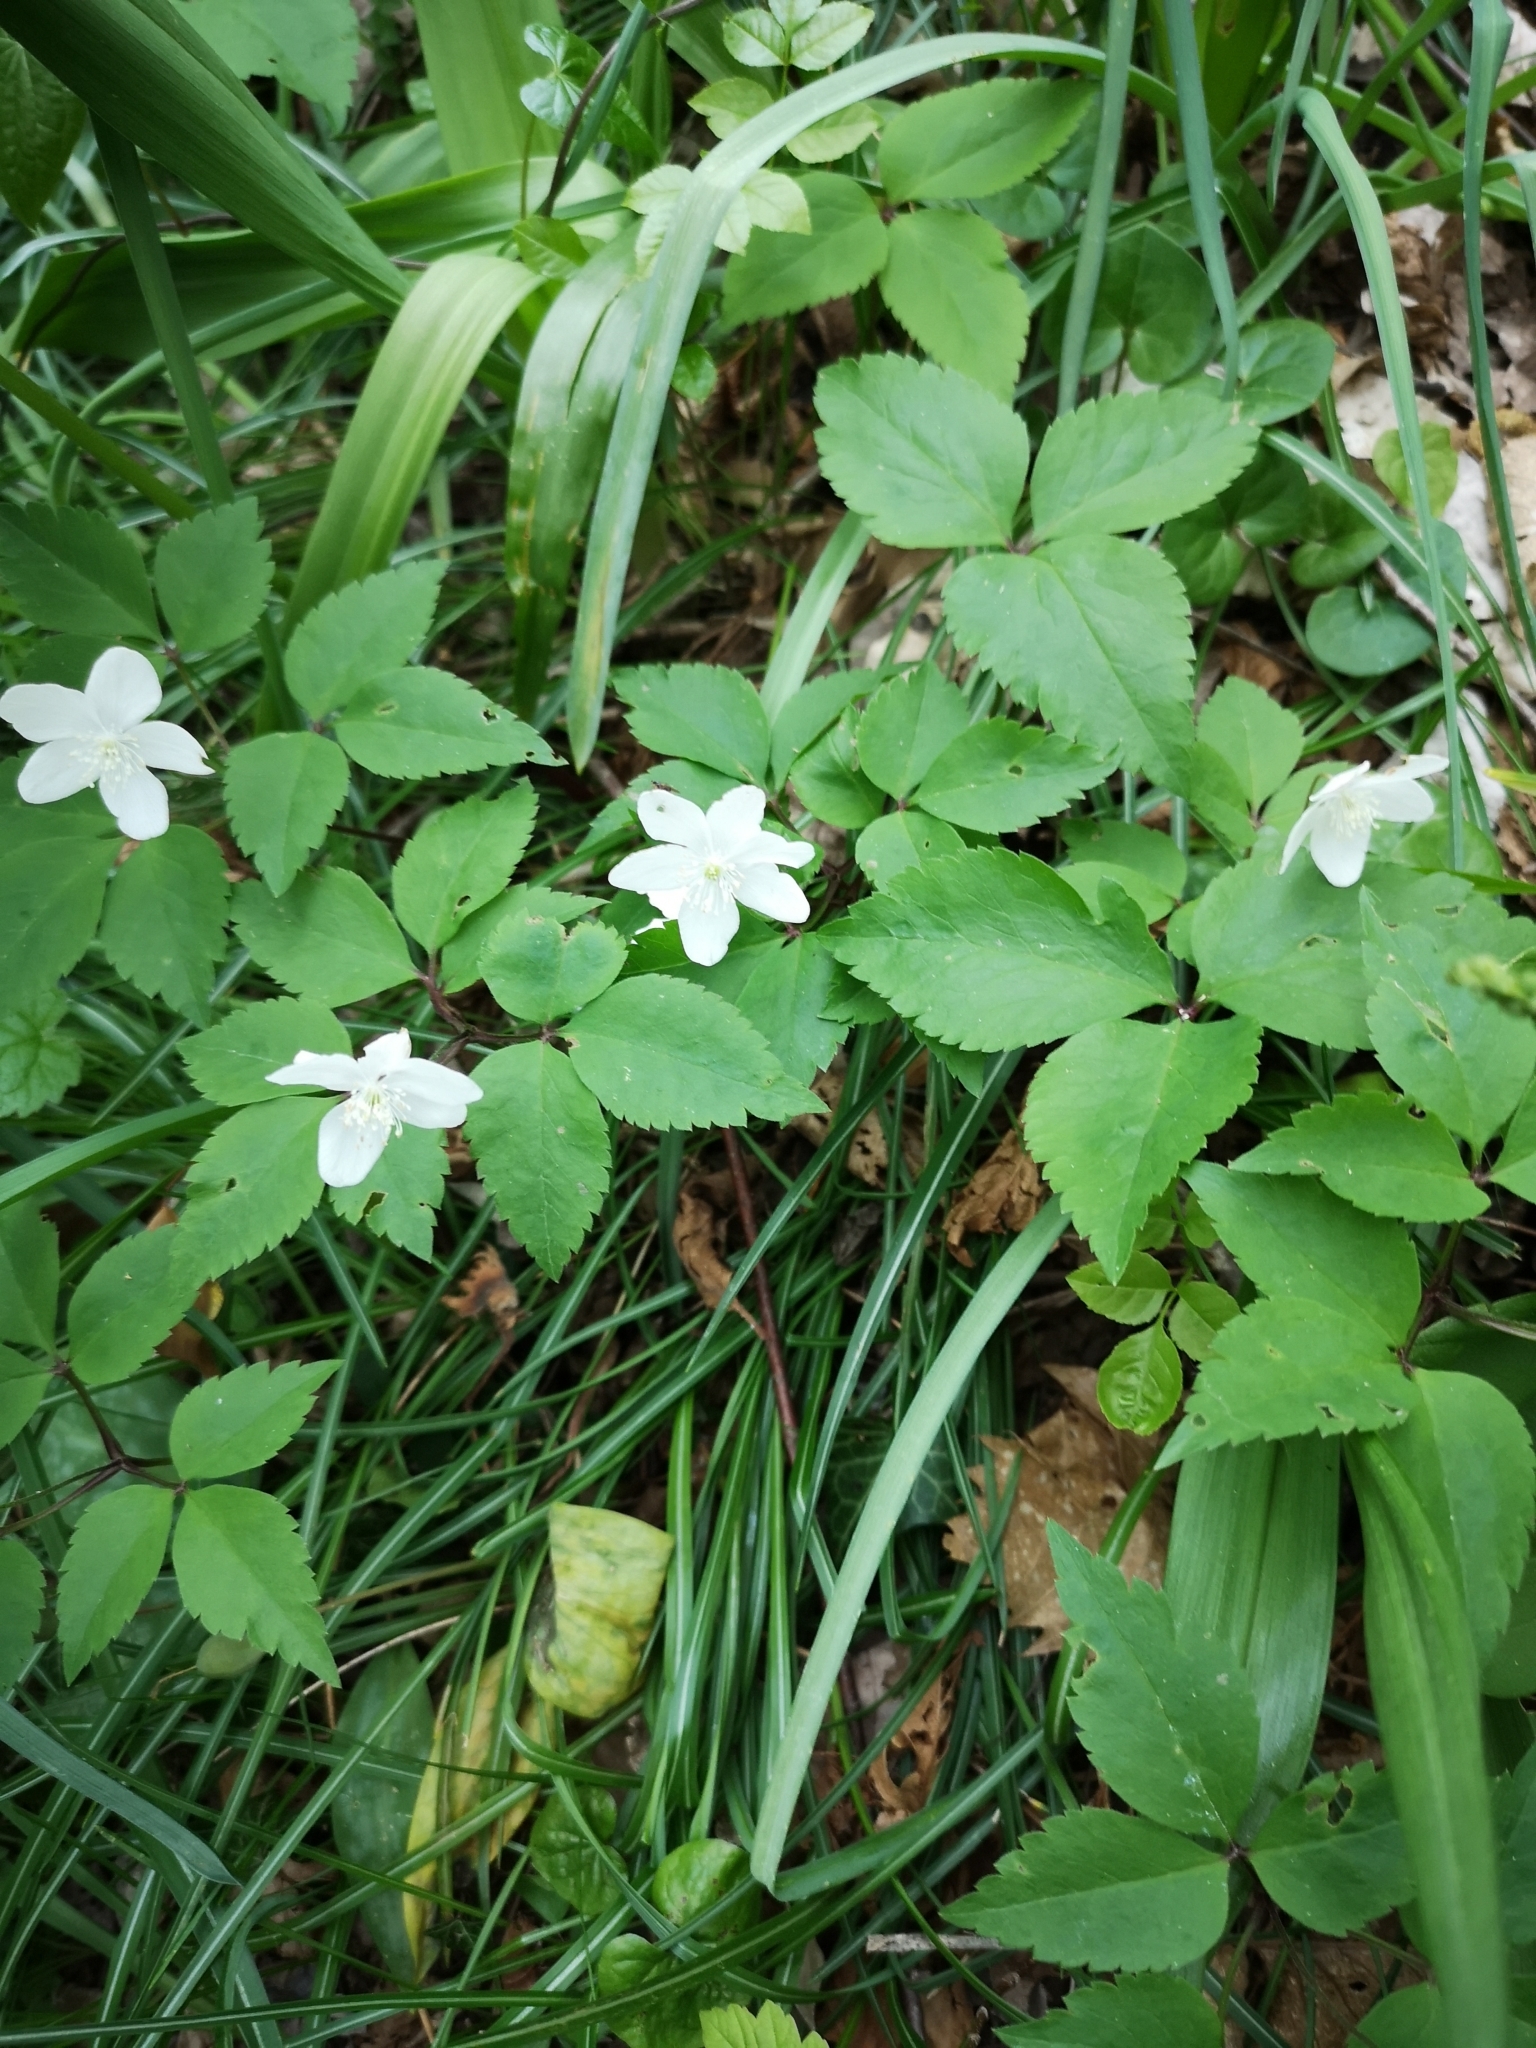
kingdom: Plantae
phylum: Tracheophyta
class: Magnoliopsida
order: Ranunculales
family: Ranunculaceae
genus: Anemone
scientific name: Anemone trifolia
